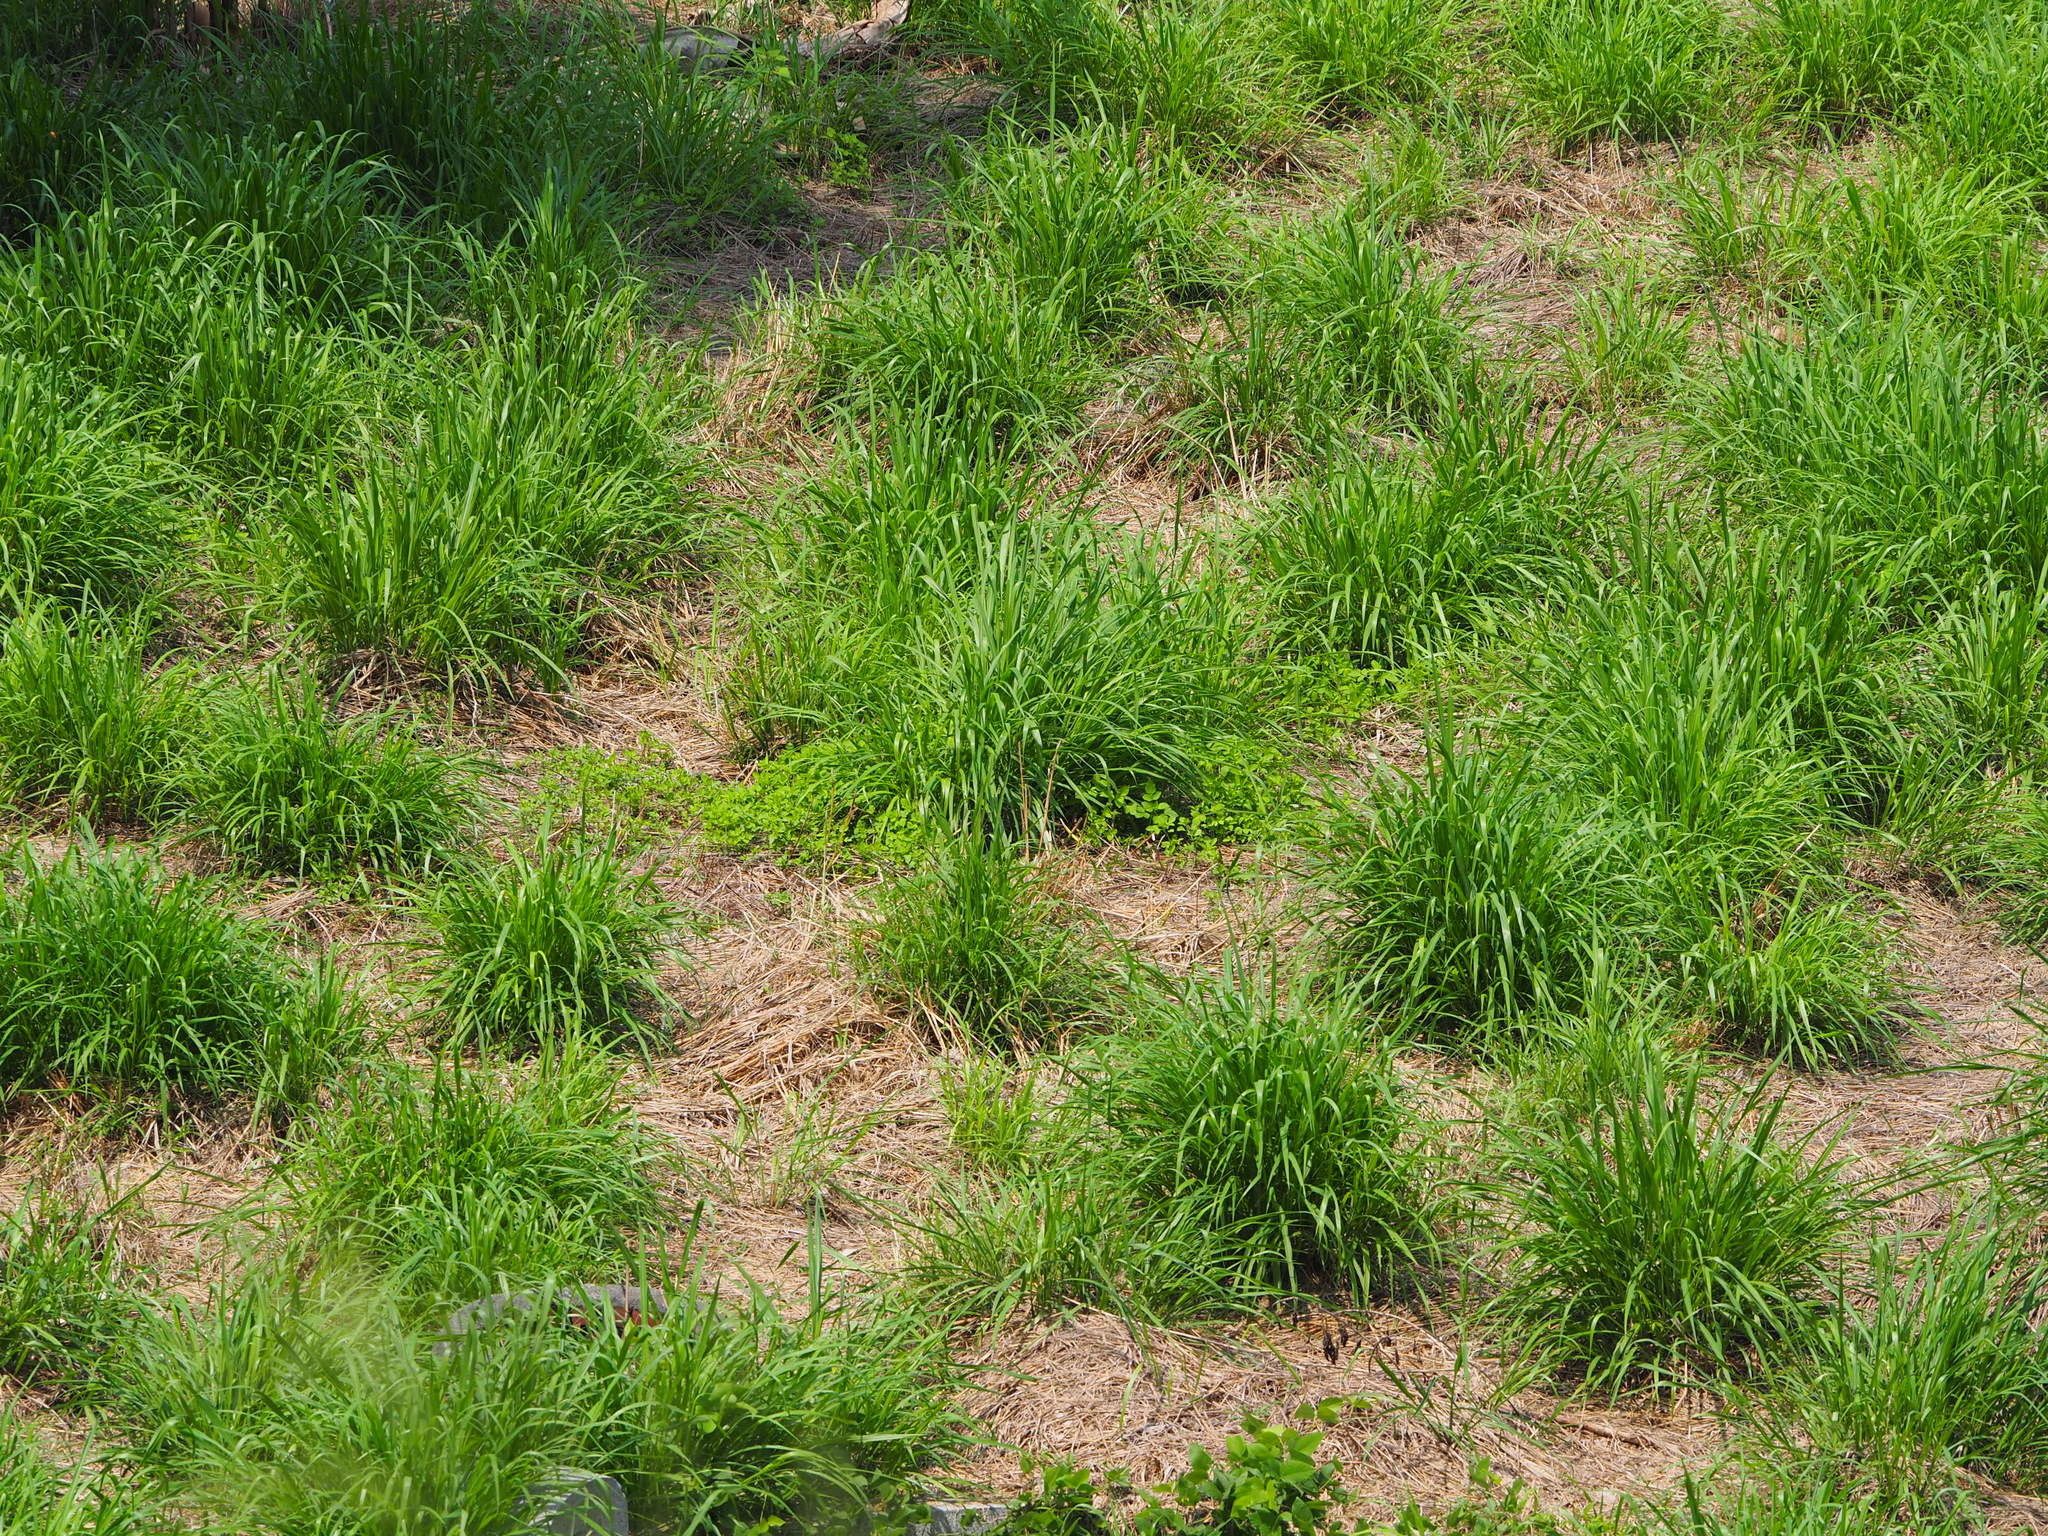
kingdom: Plantae
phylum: Tracheophyta
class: Liliopsida
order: Poales
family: Poaceae
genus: Megathyrsus
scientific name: Megathyrsus maximus
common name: Guineagrass
